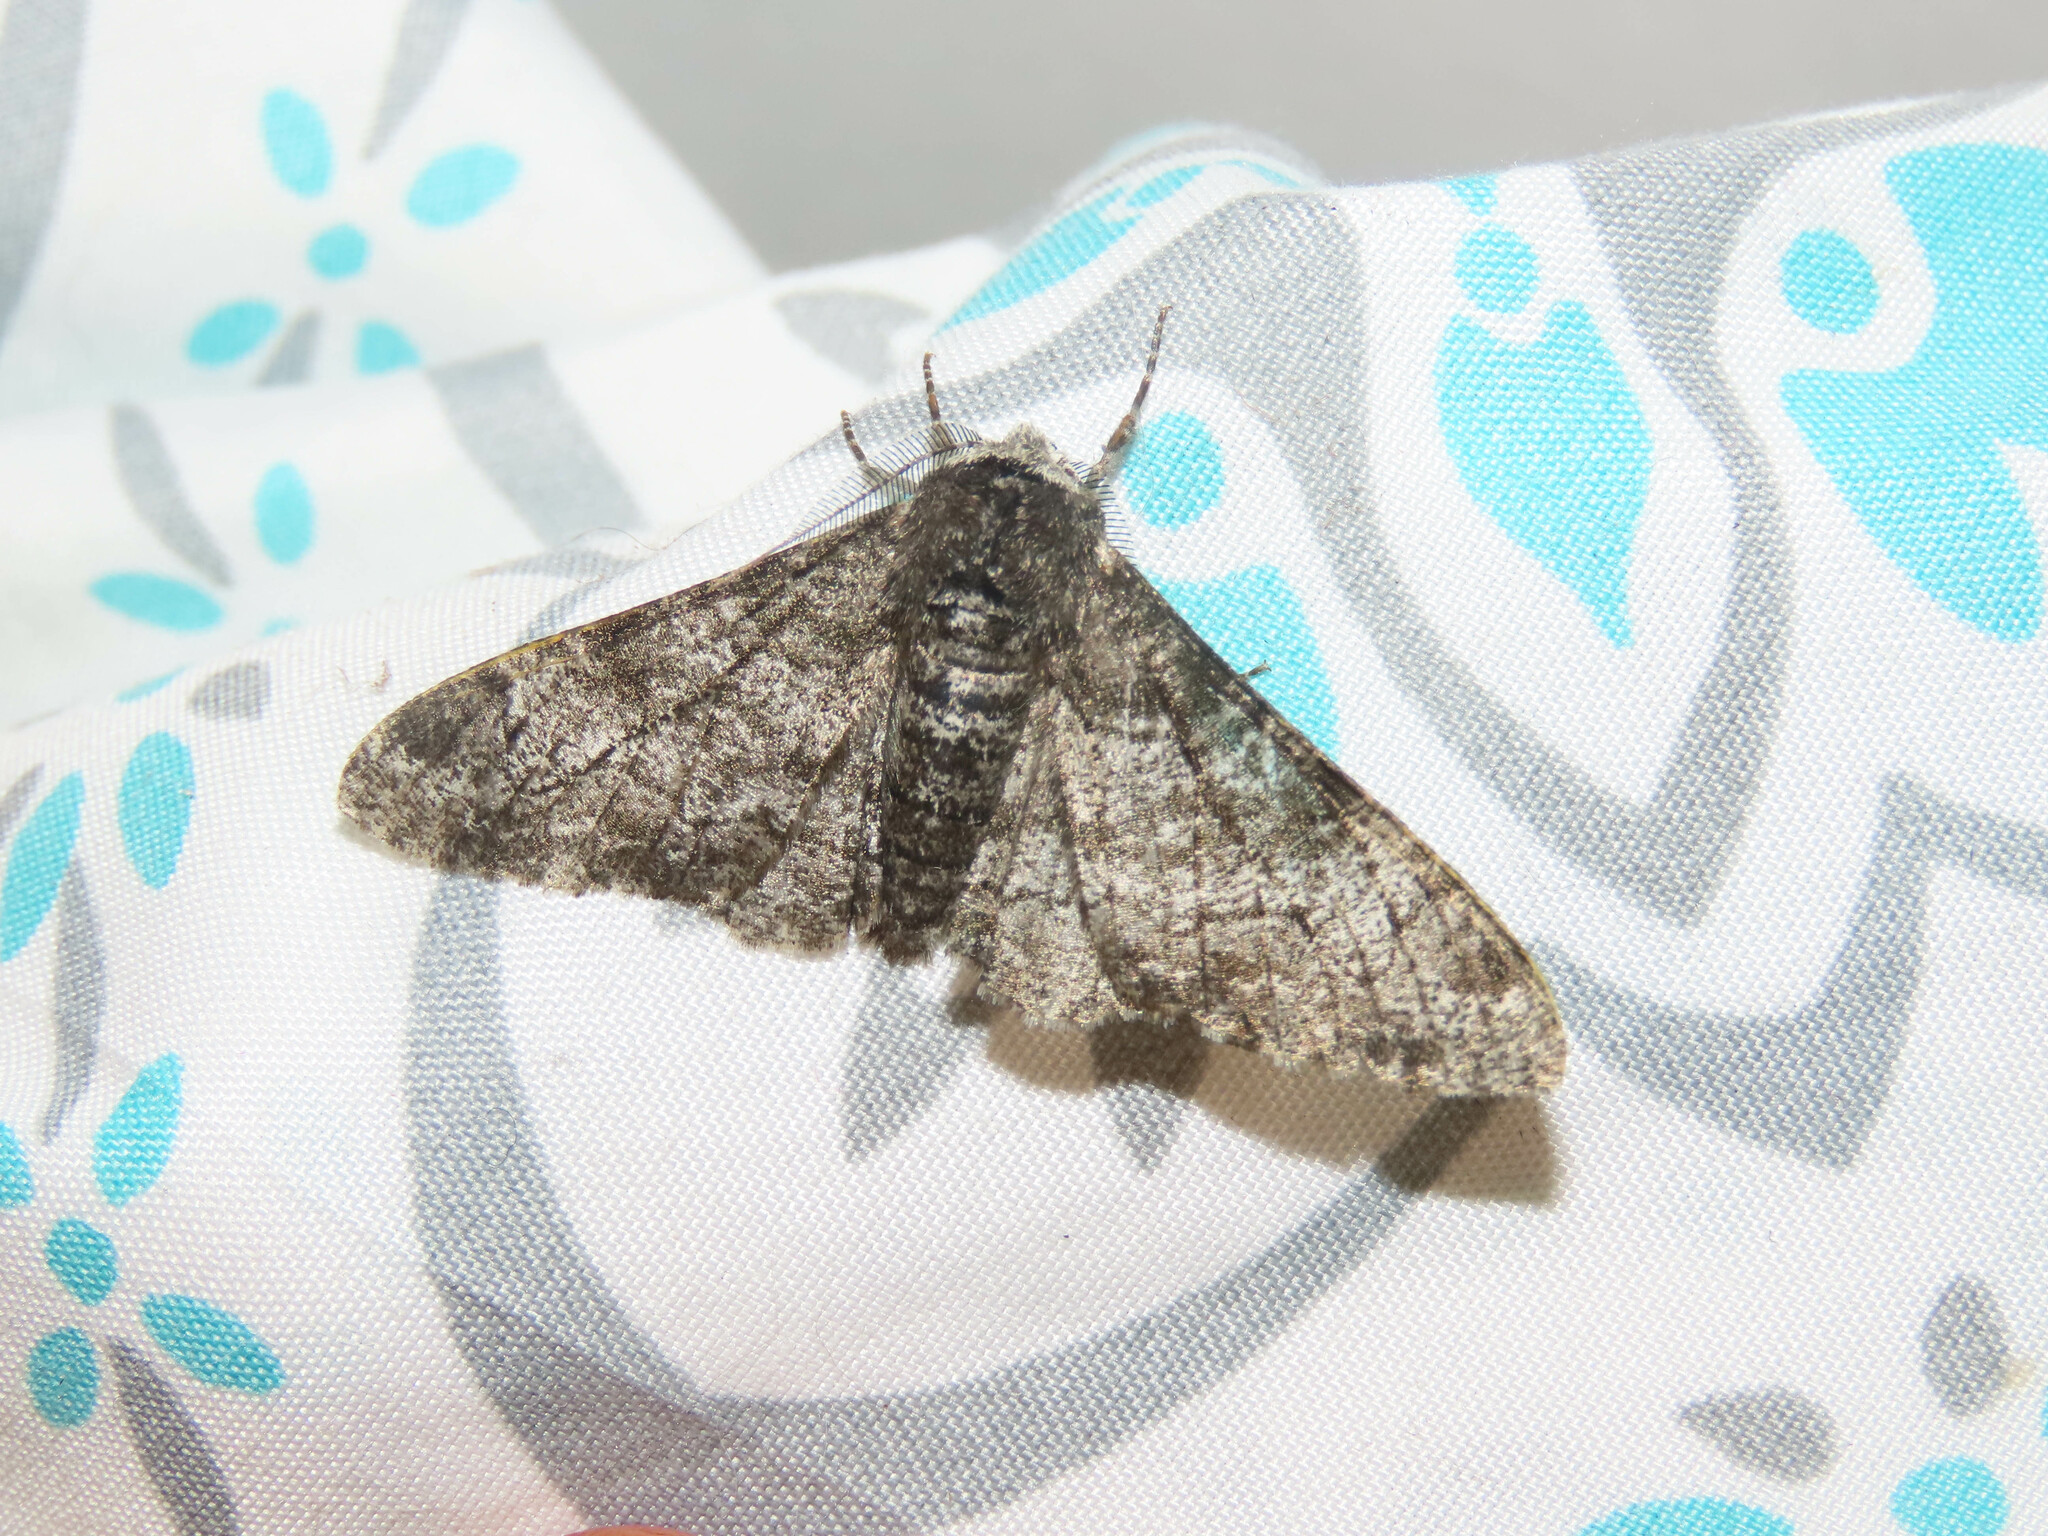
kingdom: Animalia
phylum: Arthropoda
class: Insecta
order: Lepidoptera
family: Geometridae
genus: Biston
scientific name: Biston betularia
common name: Peppered moth
